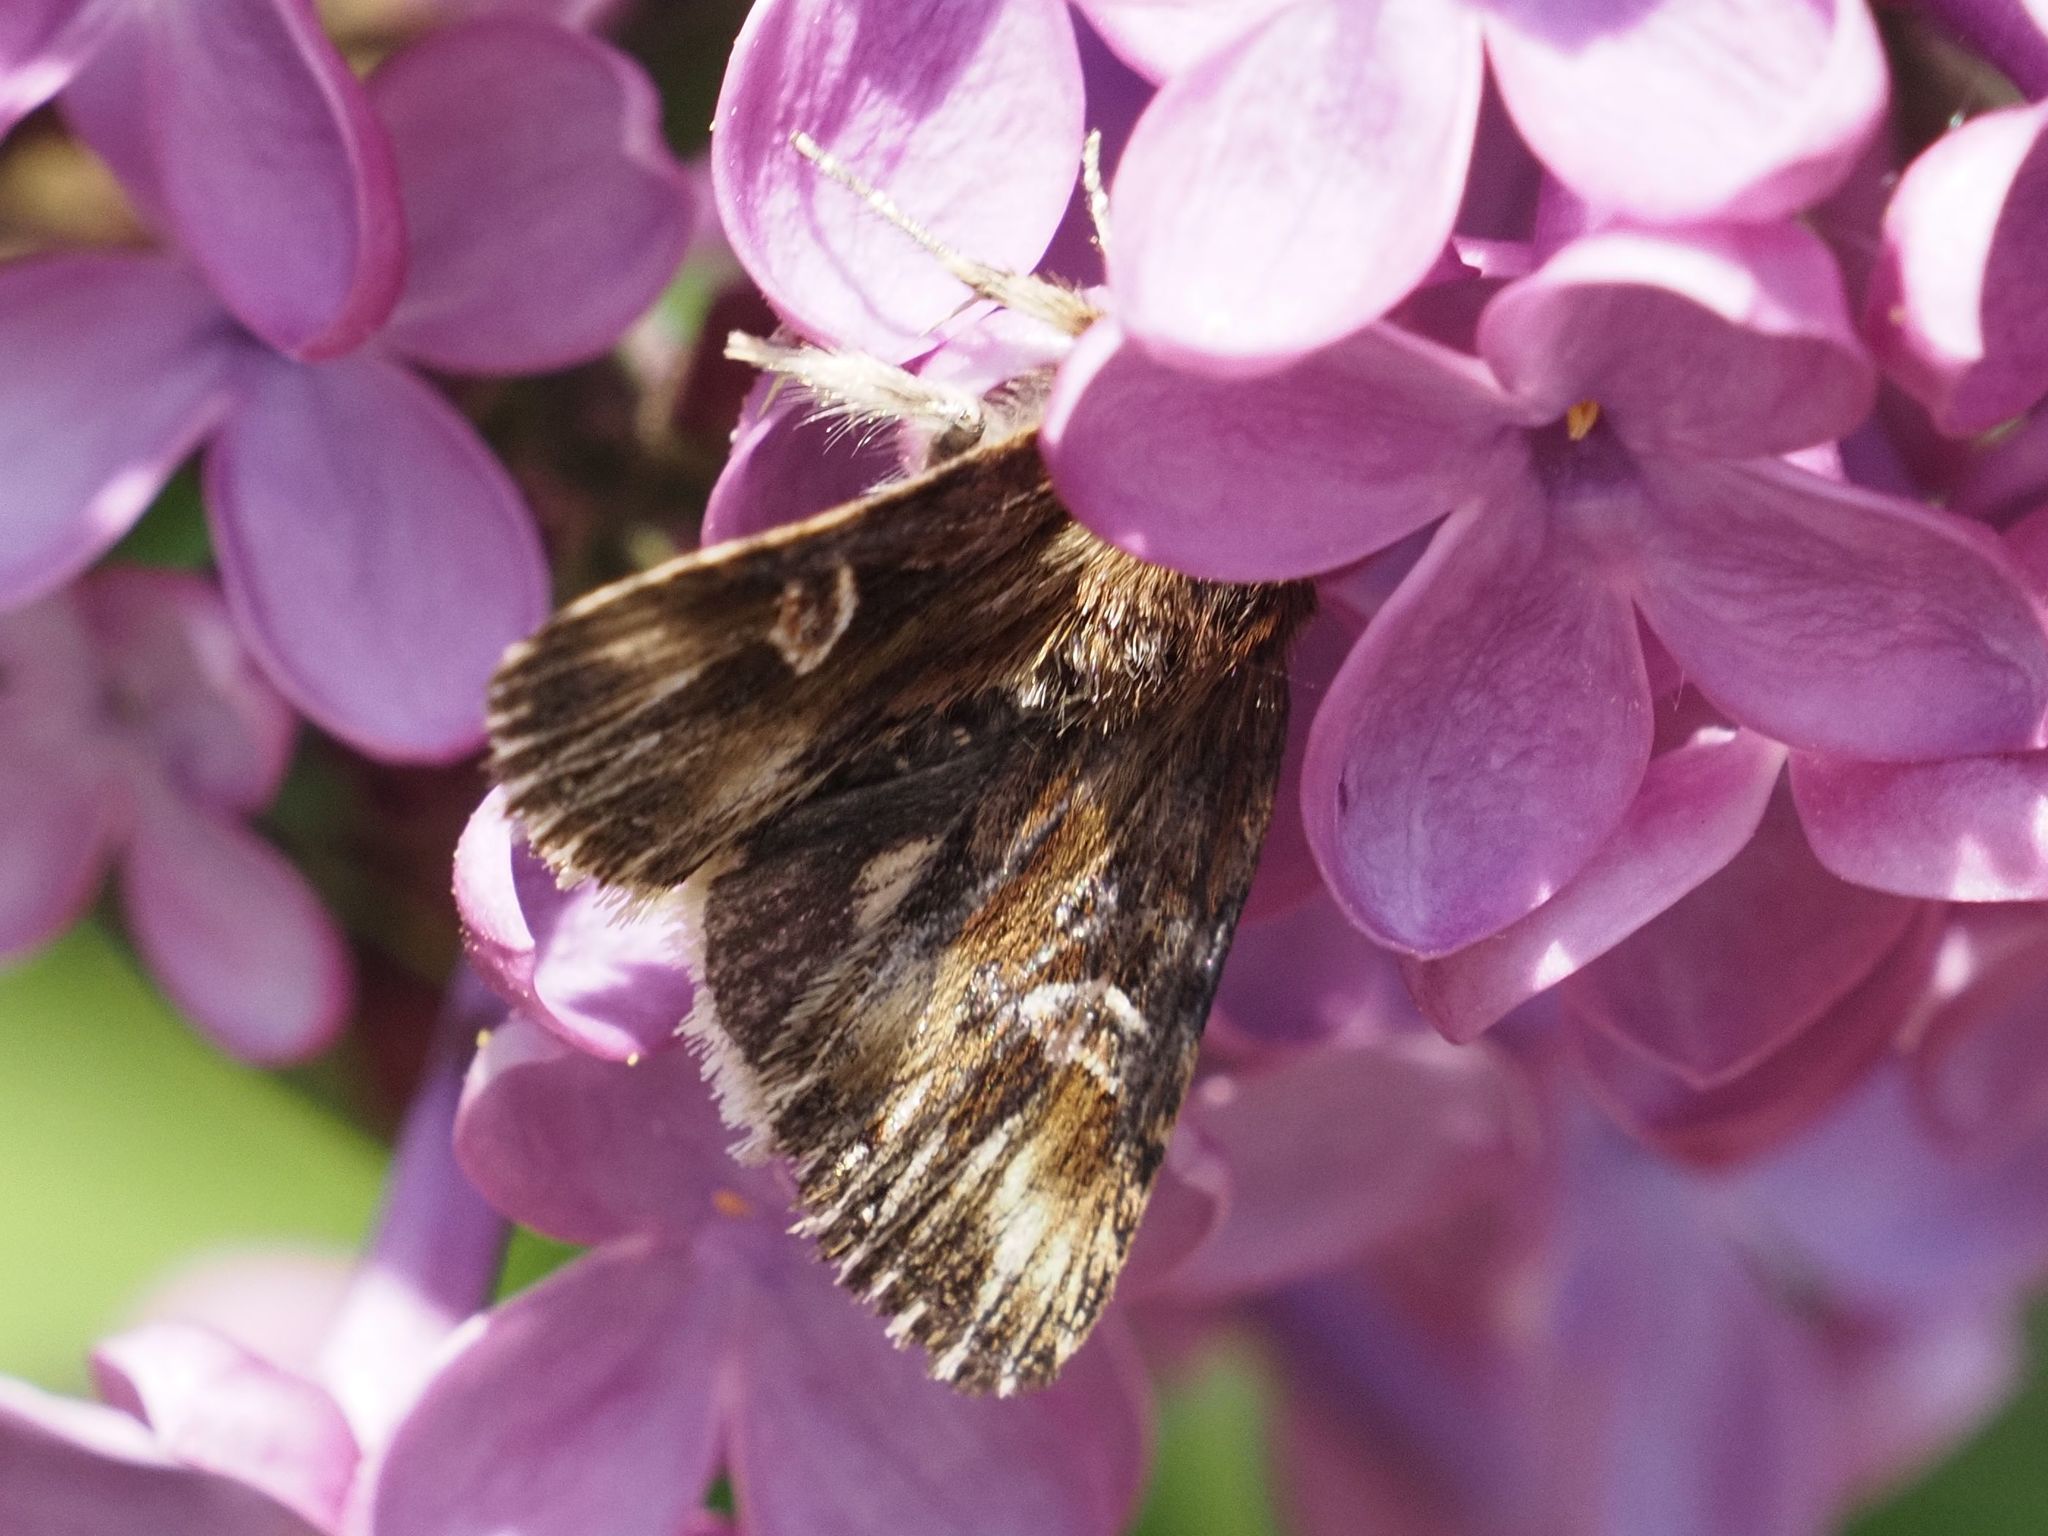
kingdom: Animalia
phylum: Arthropoda
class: Insecta
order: Lepidoptera
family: Noctuidae
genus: Actinotia
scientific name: Actinotia radiosa
